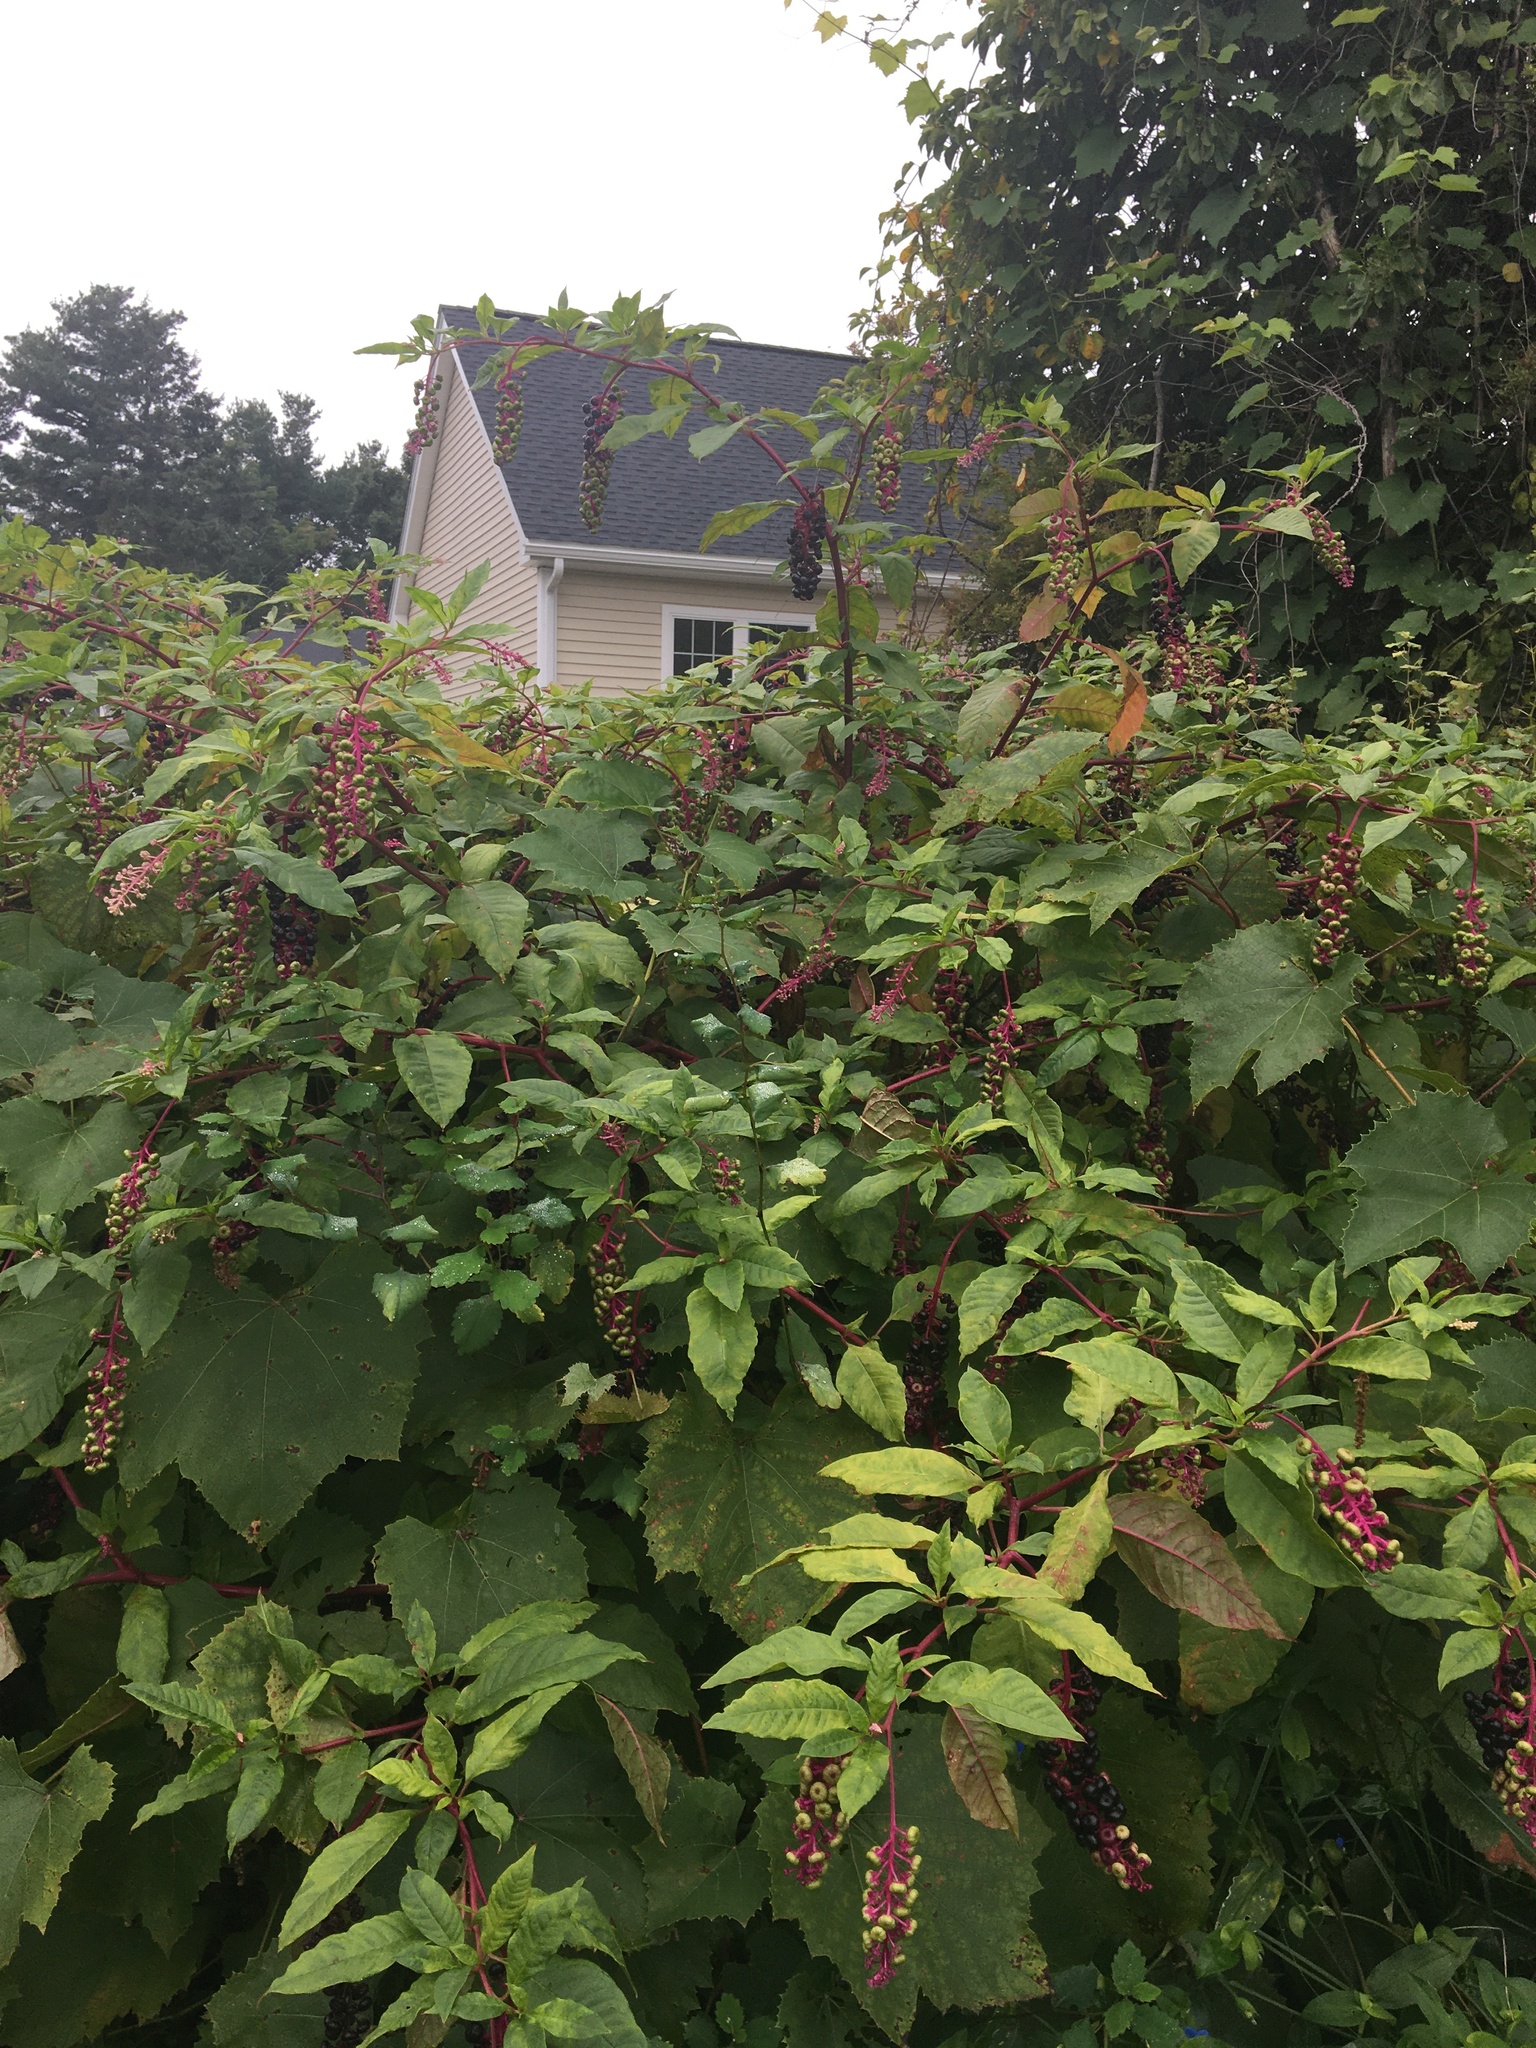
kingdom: Plantae
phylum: Tracheophyta
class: Magnoliopsida
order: Caryophyllales
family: Phytolaccaceae
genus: Phytolacca
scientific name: Phytolacca americana
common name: American pokeweed
